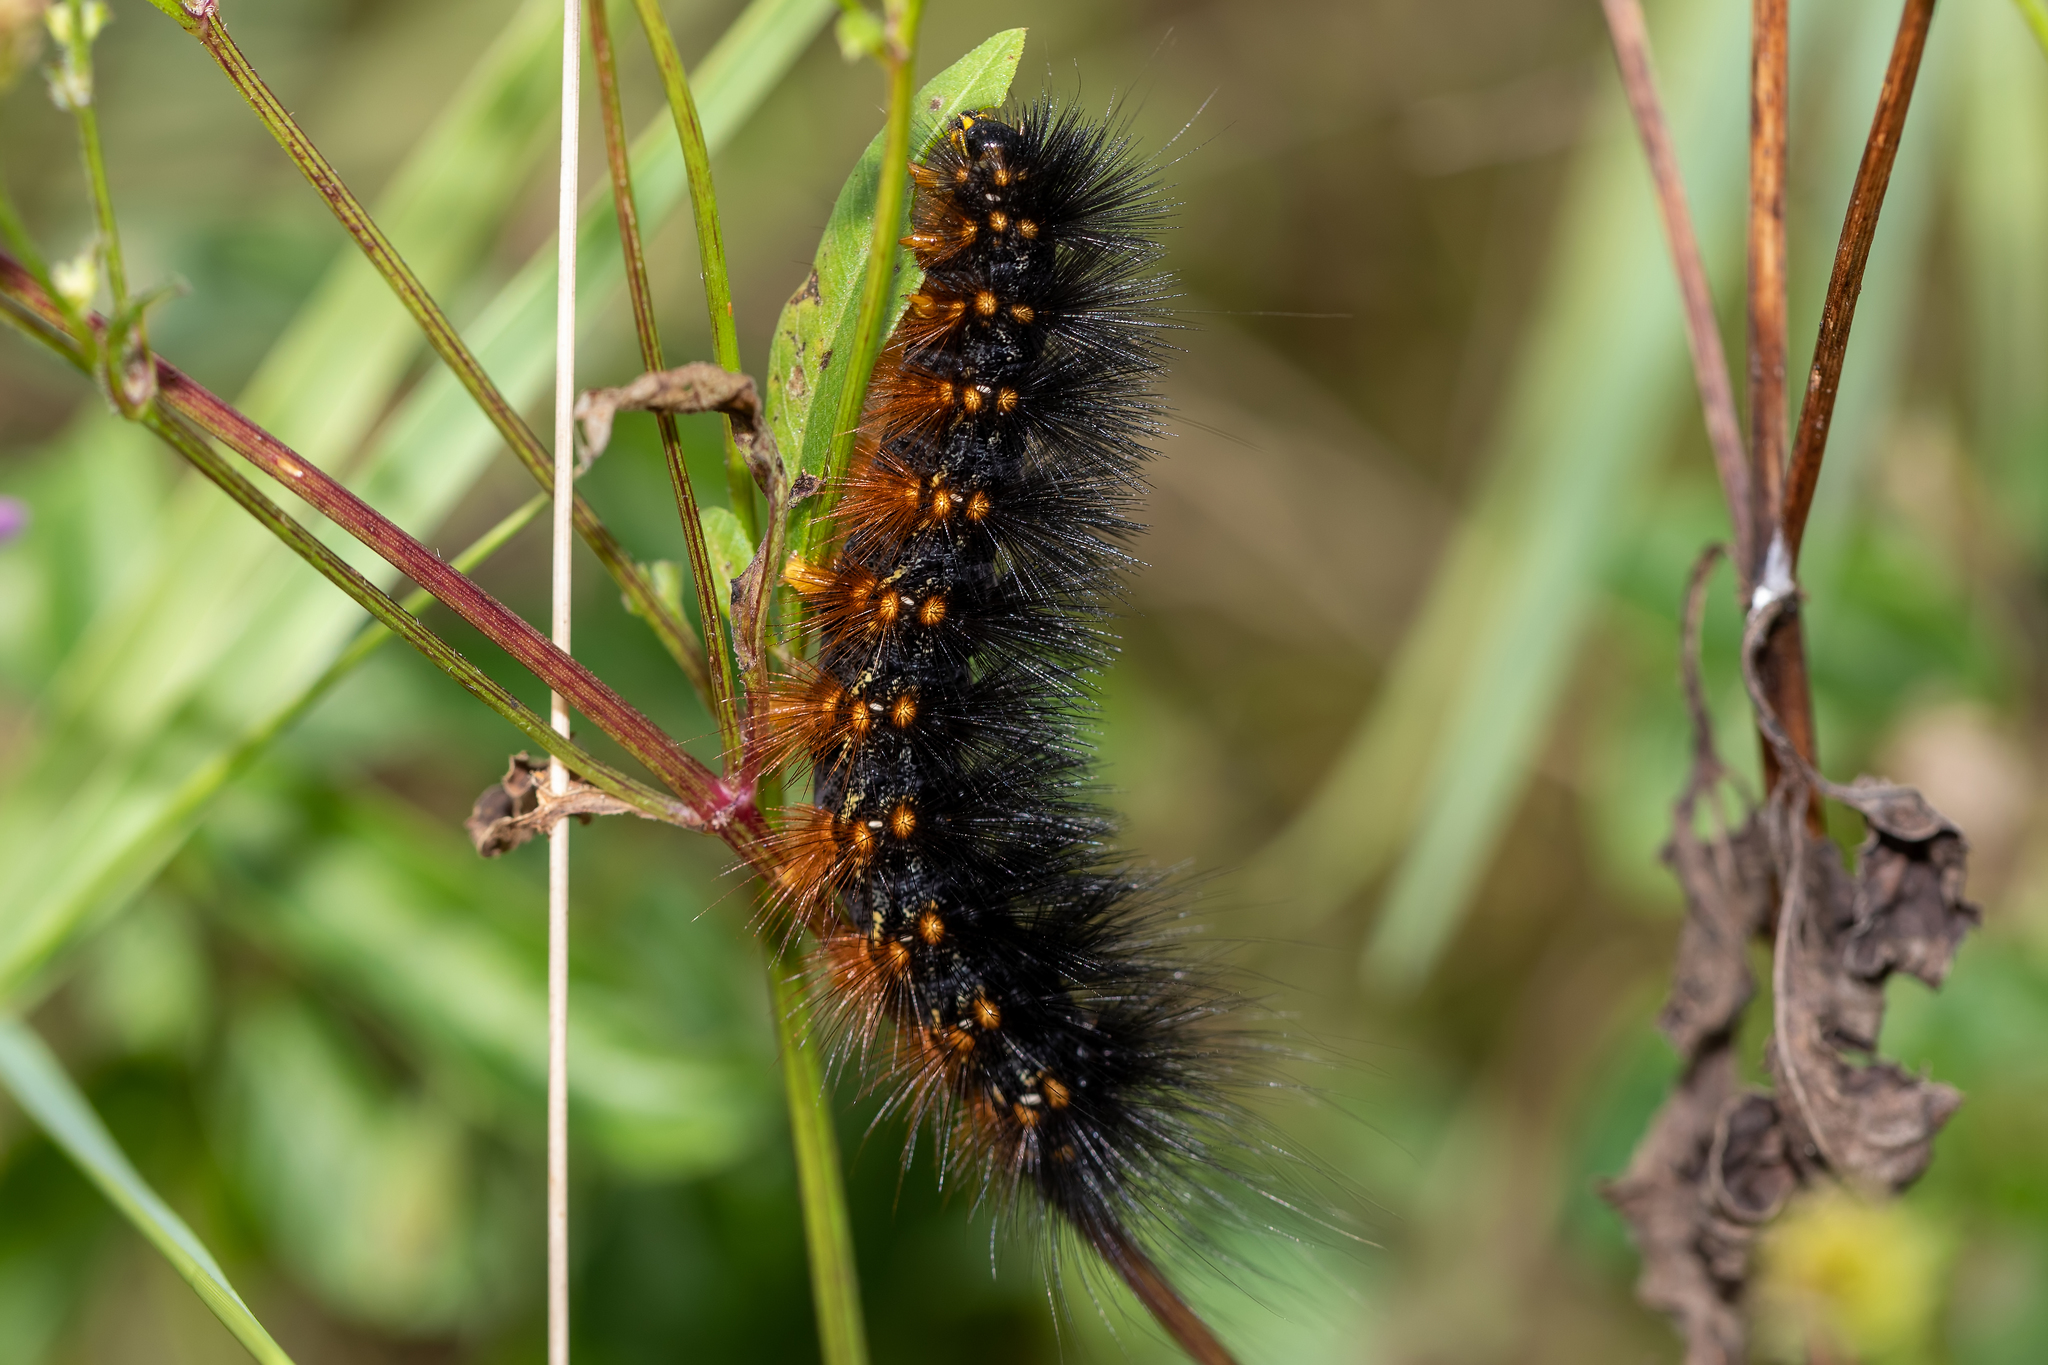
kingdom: Animalia
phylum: Arthropoda
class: Insecta
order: Lepidoptera
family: Erebidae
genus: Estigmene
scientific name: Estigmene acrea
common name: Salt marsh moth
